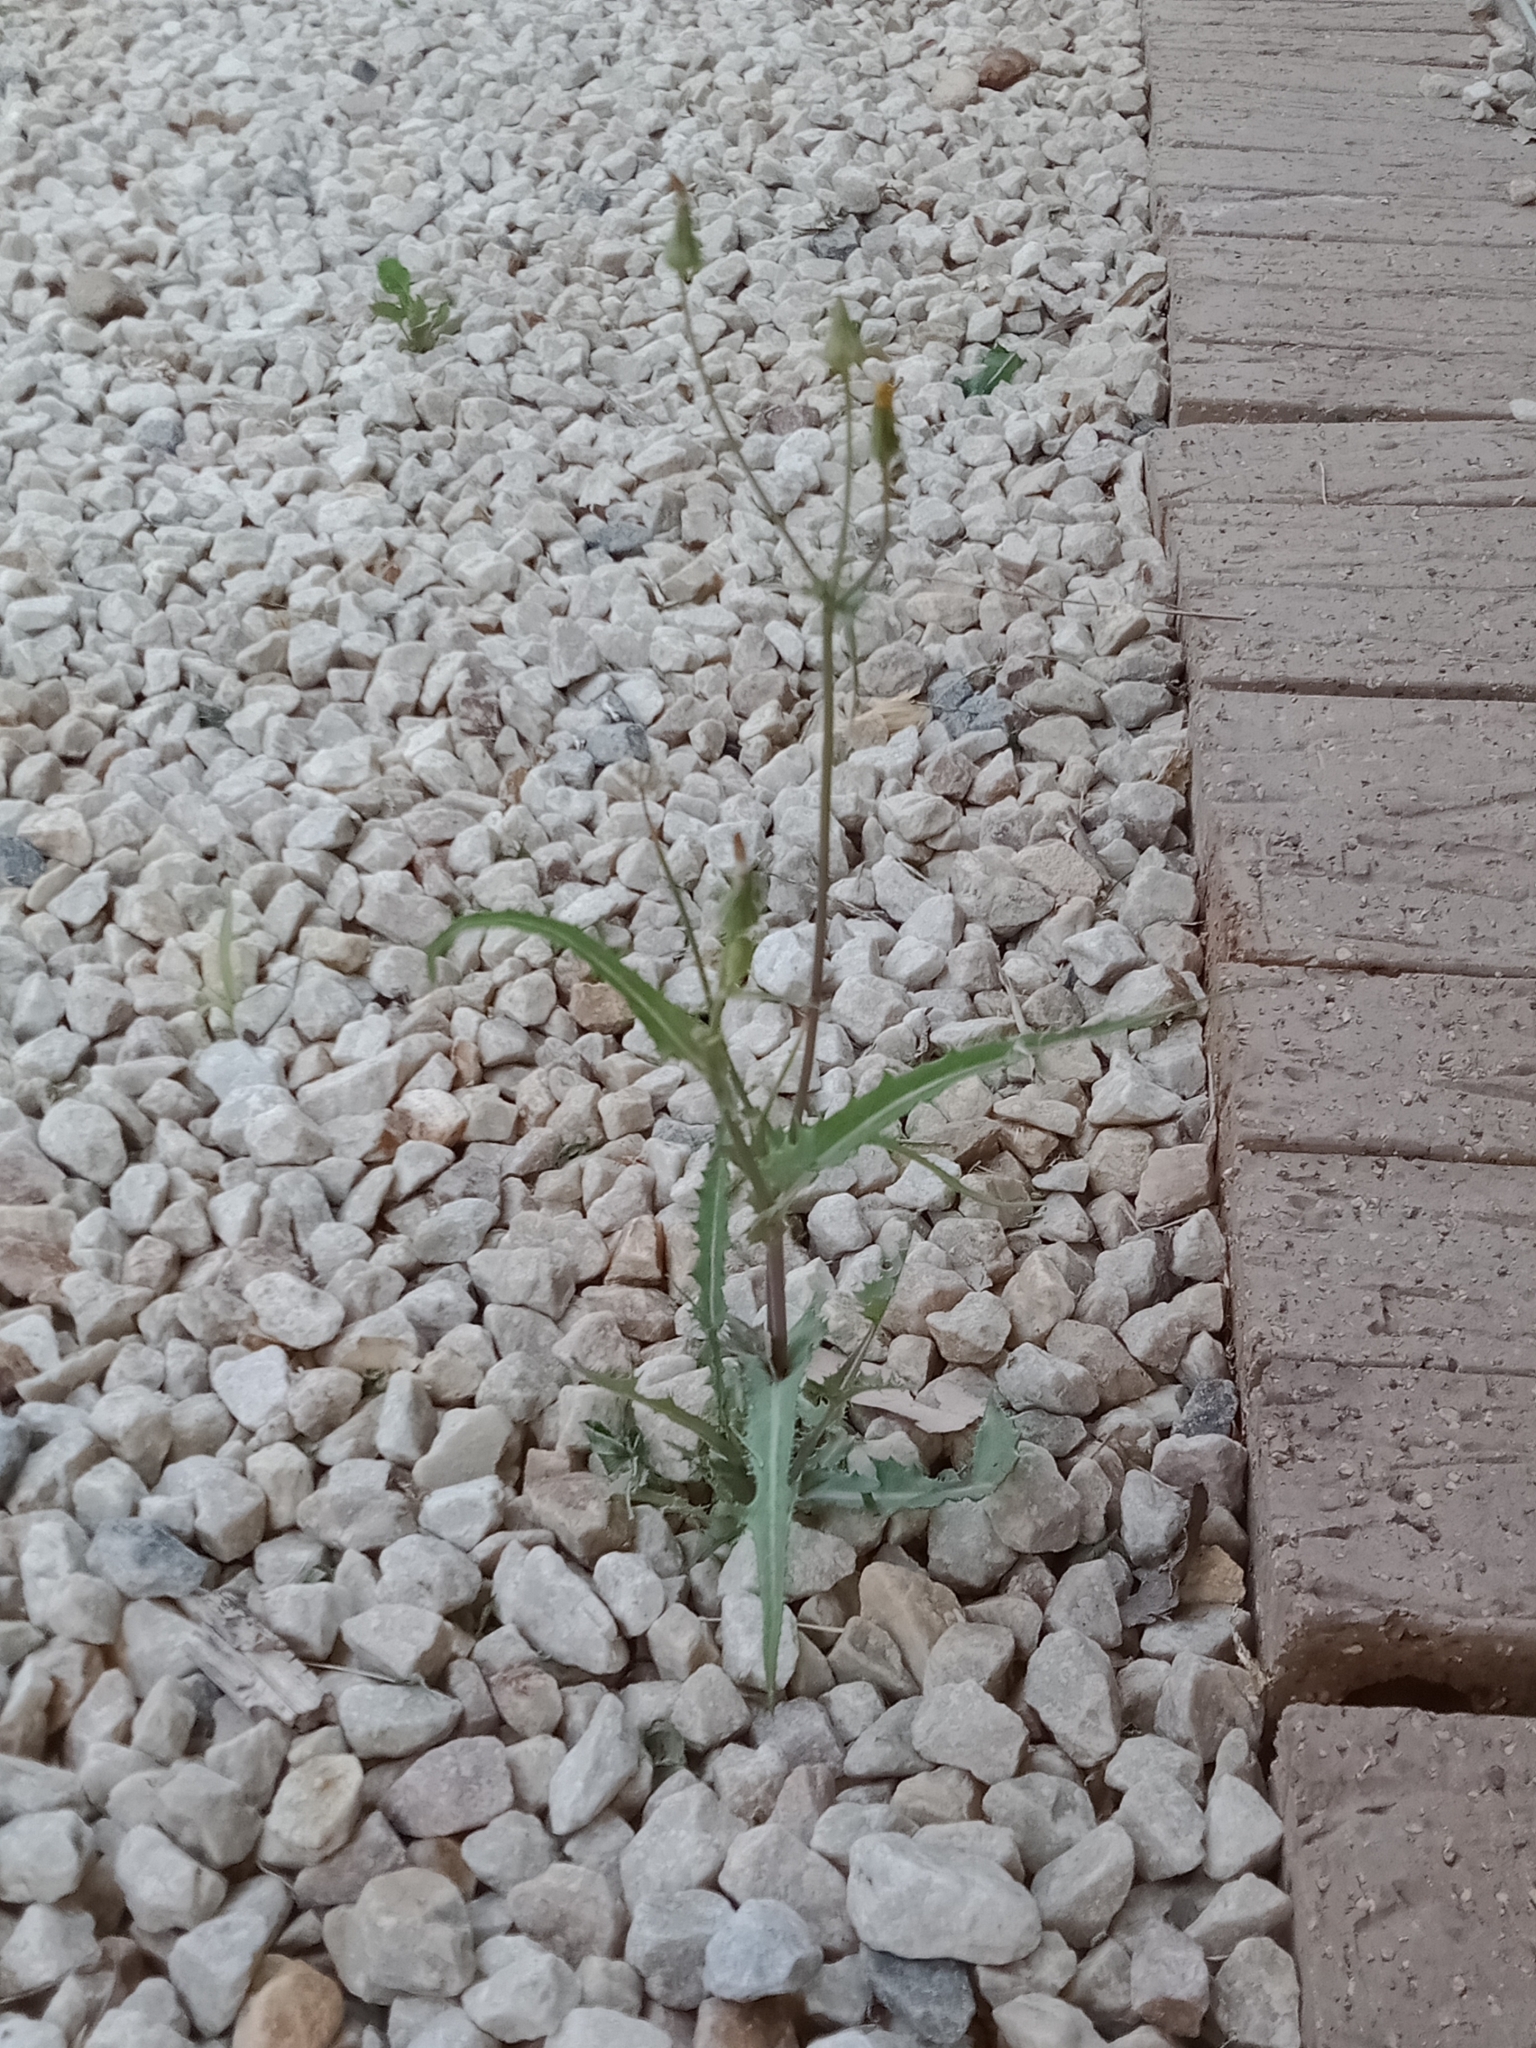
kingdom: Plantae
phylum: Tracheophyta
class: Magnoliopsida
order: Asterales
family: Asteraceae
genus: Sonchus
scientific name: Sonchus oleraceus
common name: Common sowthistle
